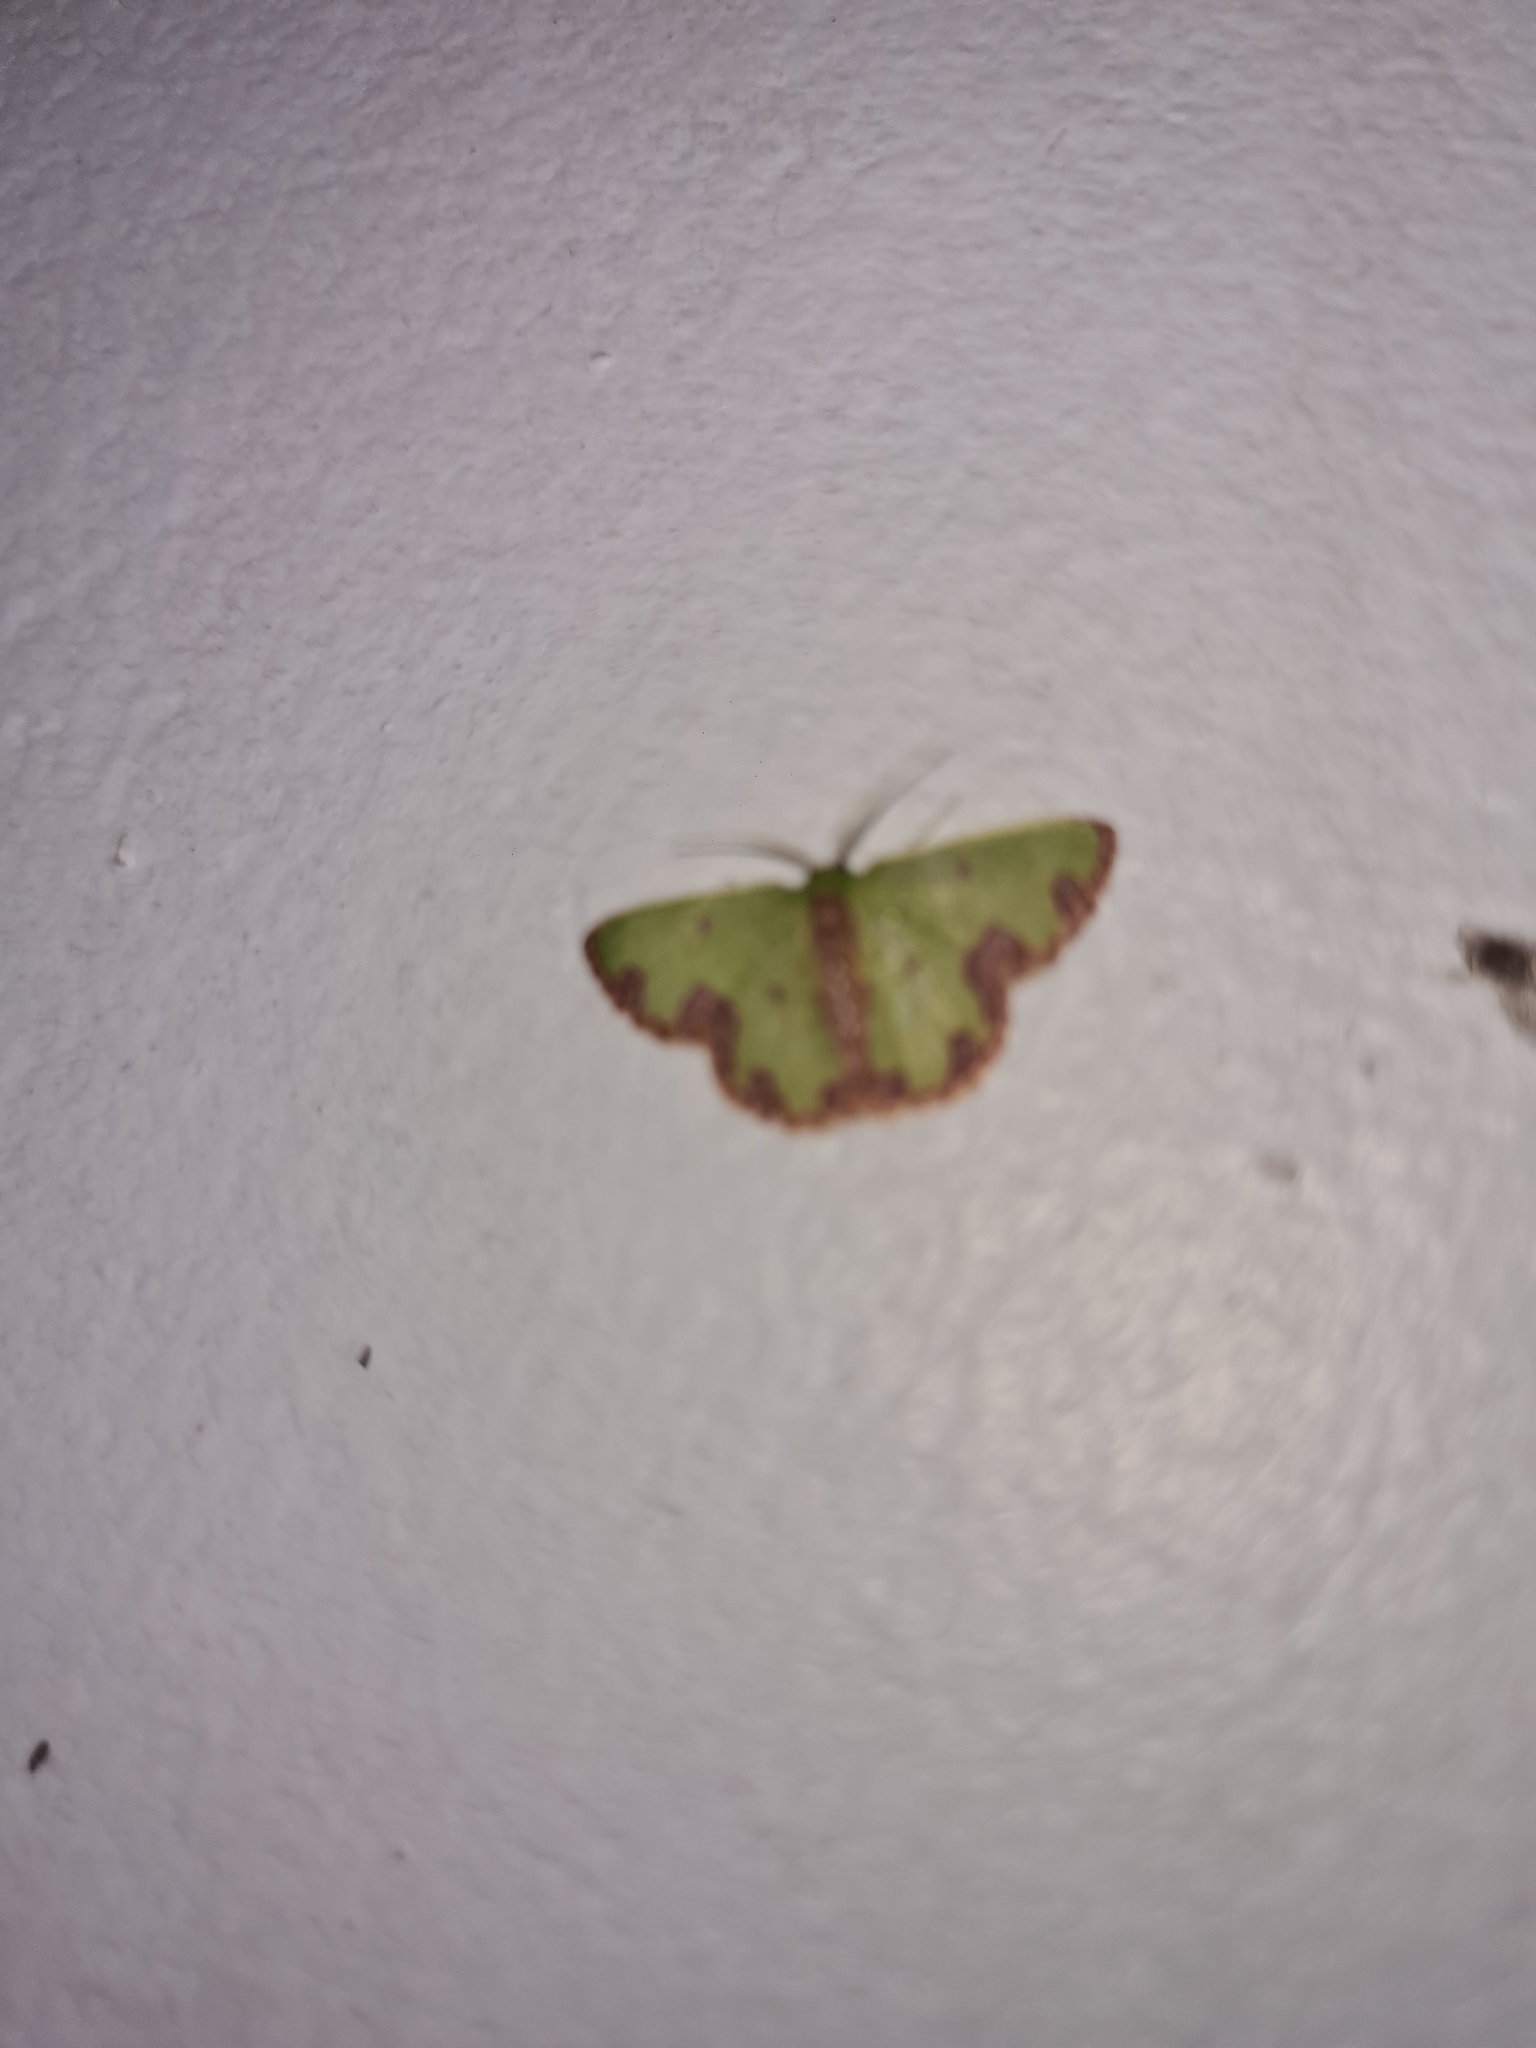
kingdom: Animalia
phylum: Arthropoda
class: Insecta
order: Lepidoptera
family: Geometridae
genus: Synchlora
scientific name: Synchlora gerularia
